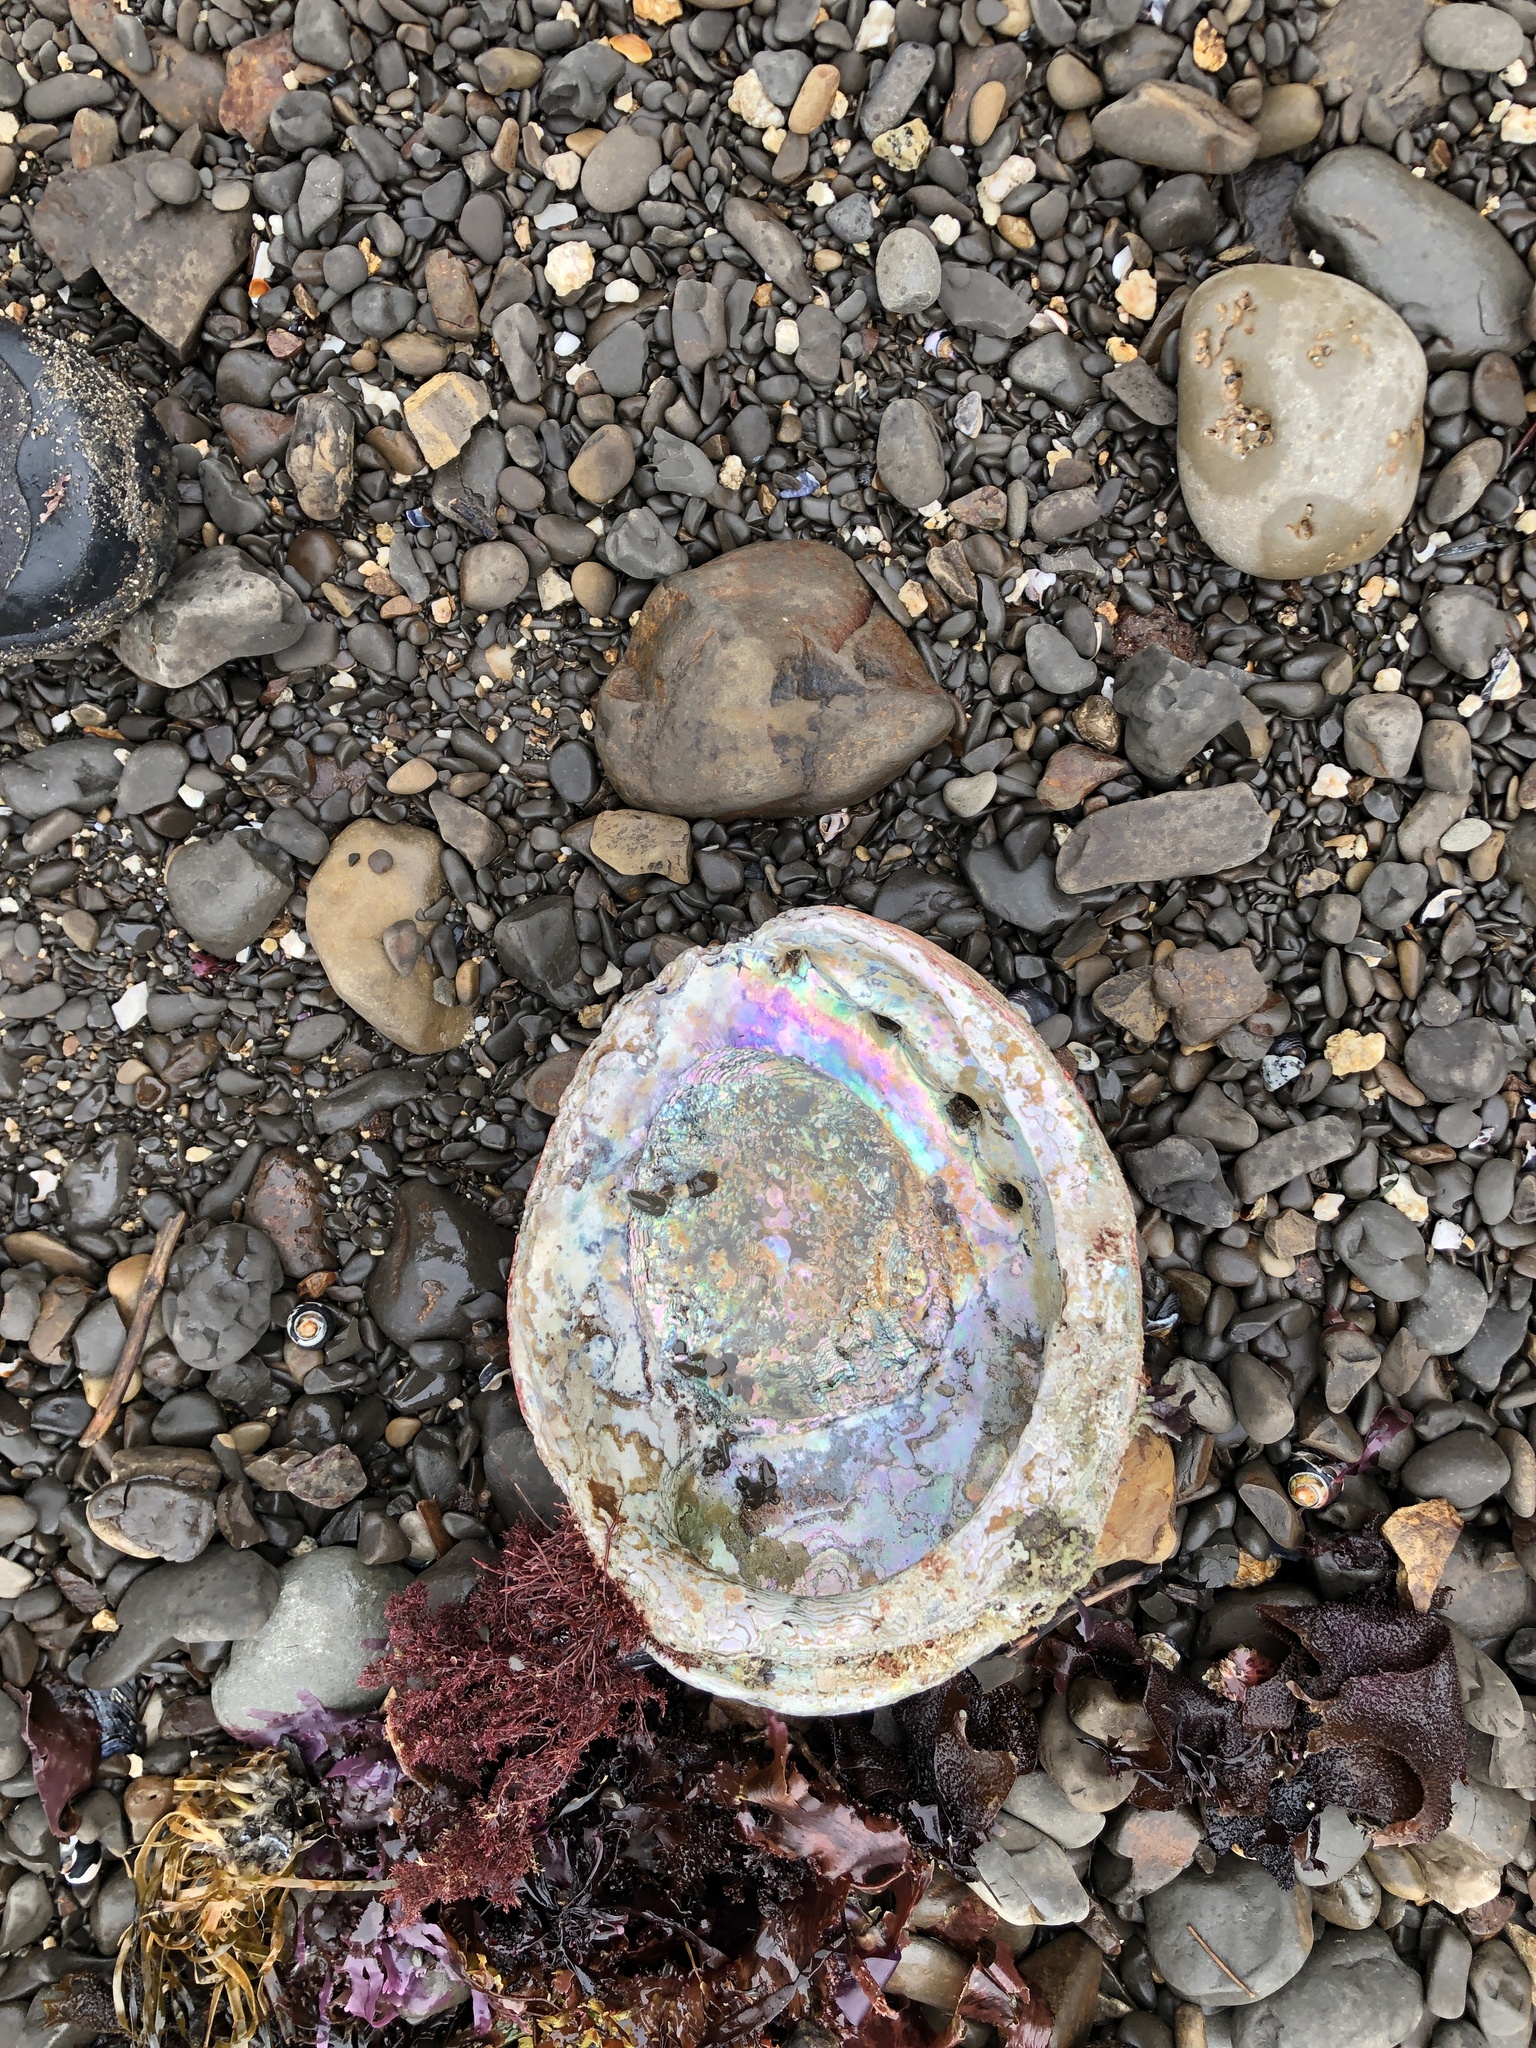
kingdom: Animalia
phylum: Mollusca
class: Gastropoda
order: Lepetellida
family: Haliotidae
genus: Haliotis
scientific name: Haliotis rufescens
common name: Red abalone
